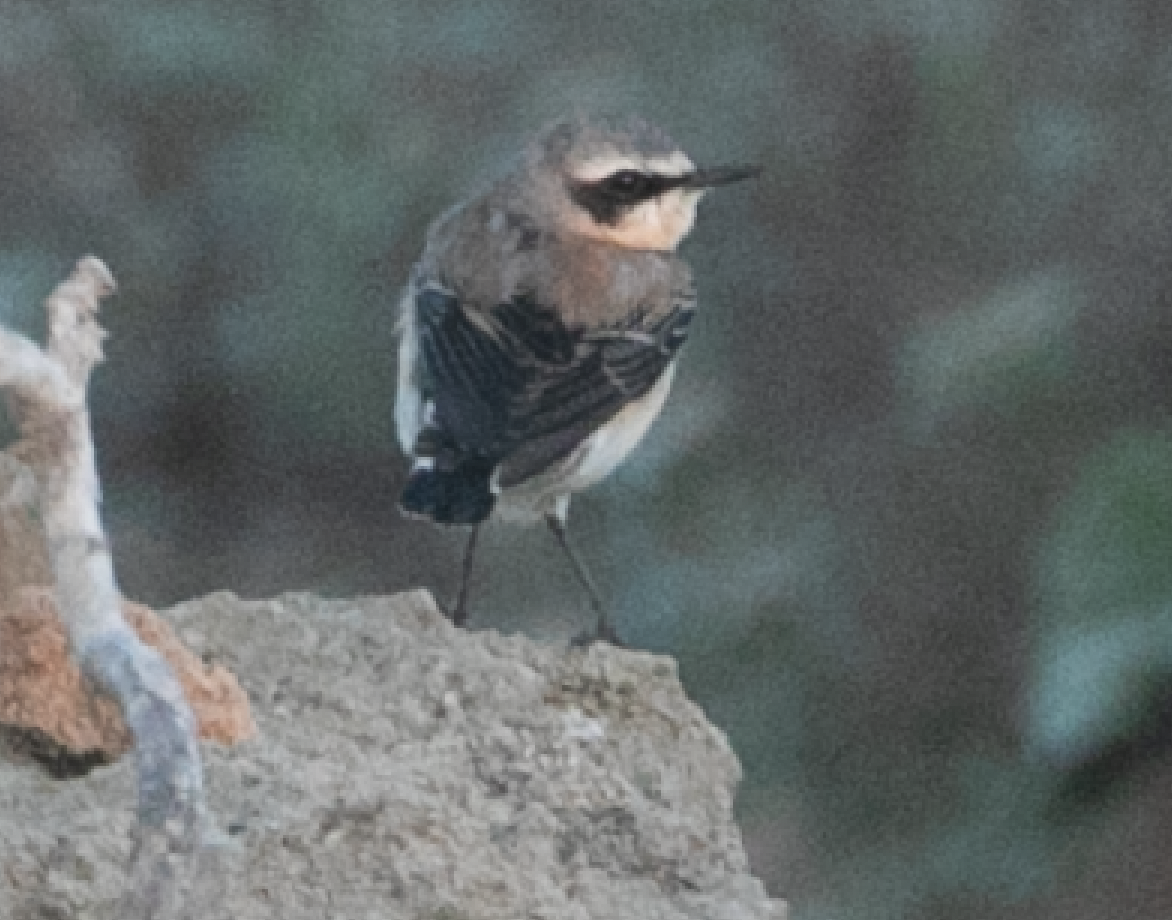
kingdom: Animalia
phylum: Chordata
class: Aves
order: Passeriformes
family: Muscicapidae
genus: Oenanthe
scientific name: Oenanthe oenanthe
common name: Northern wheatear
